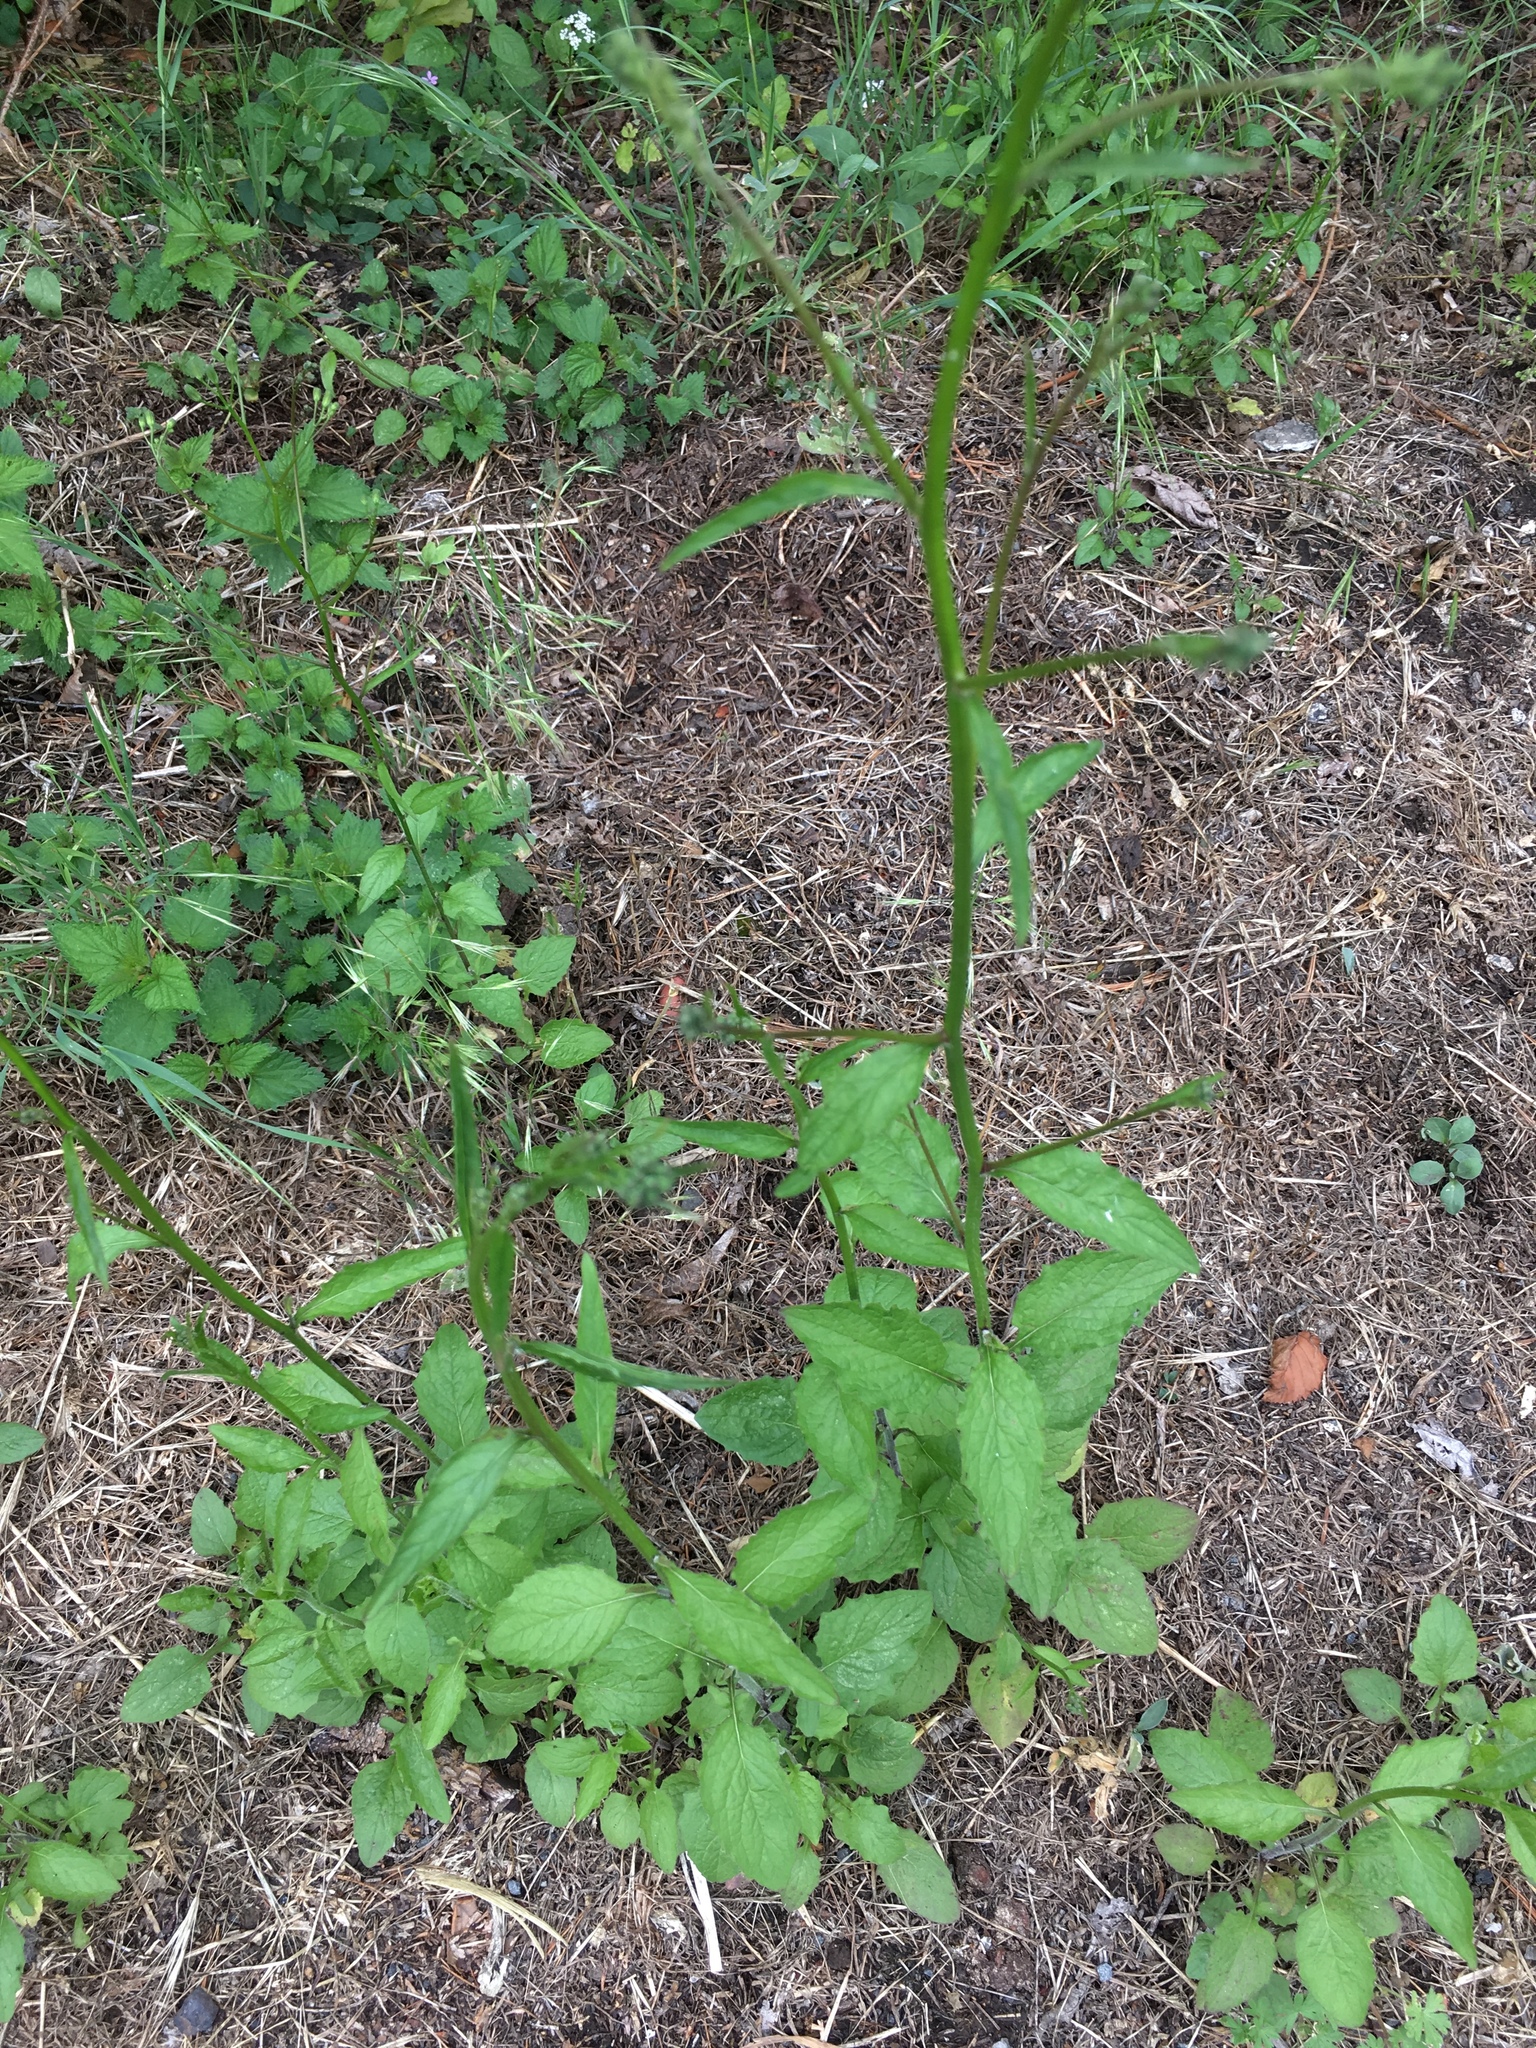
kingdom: Plantae
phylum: Tracheophyta
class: Magnoliopsida
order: Asterales
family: Asteraceae
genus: Lapsana
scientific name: Lapsana communis
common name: Nipplewort
